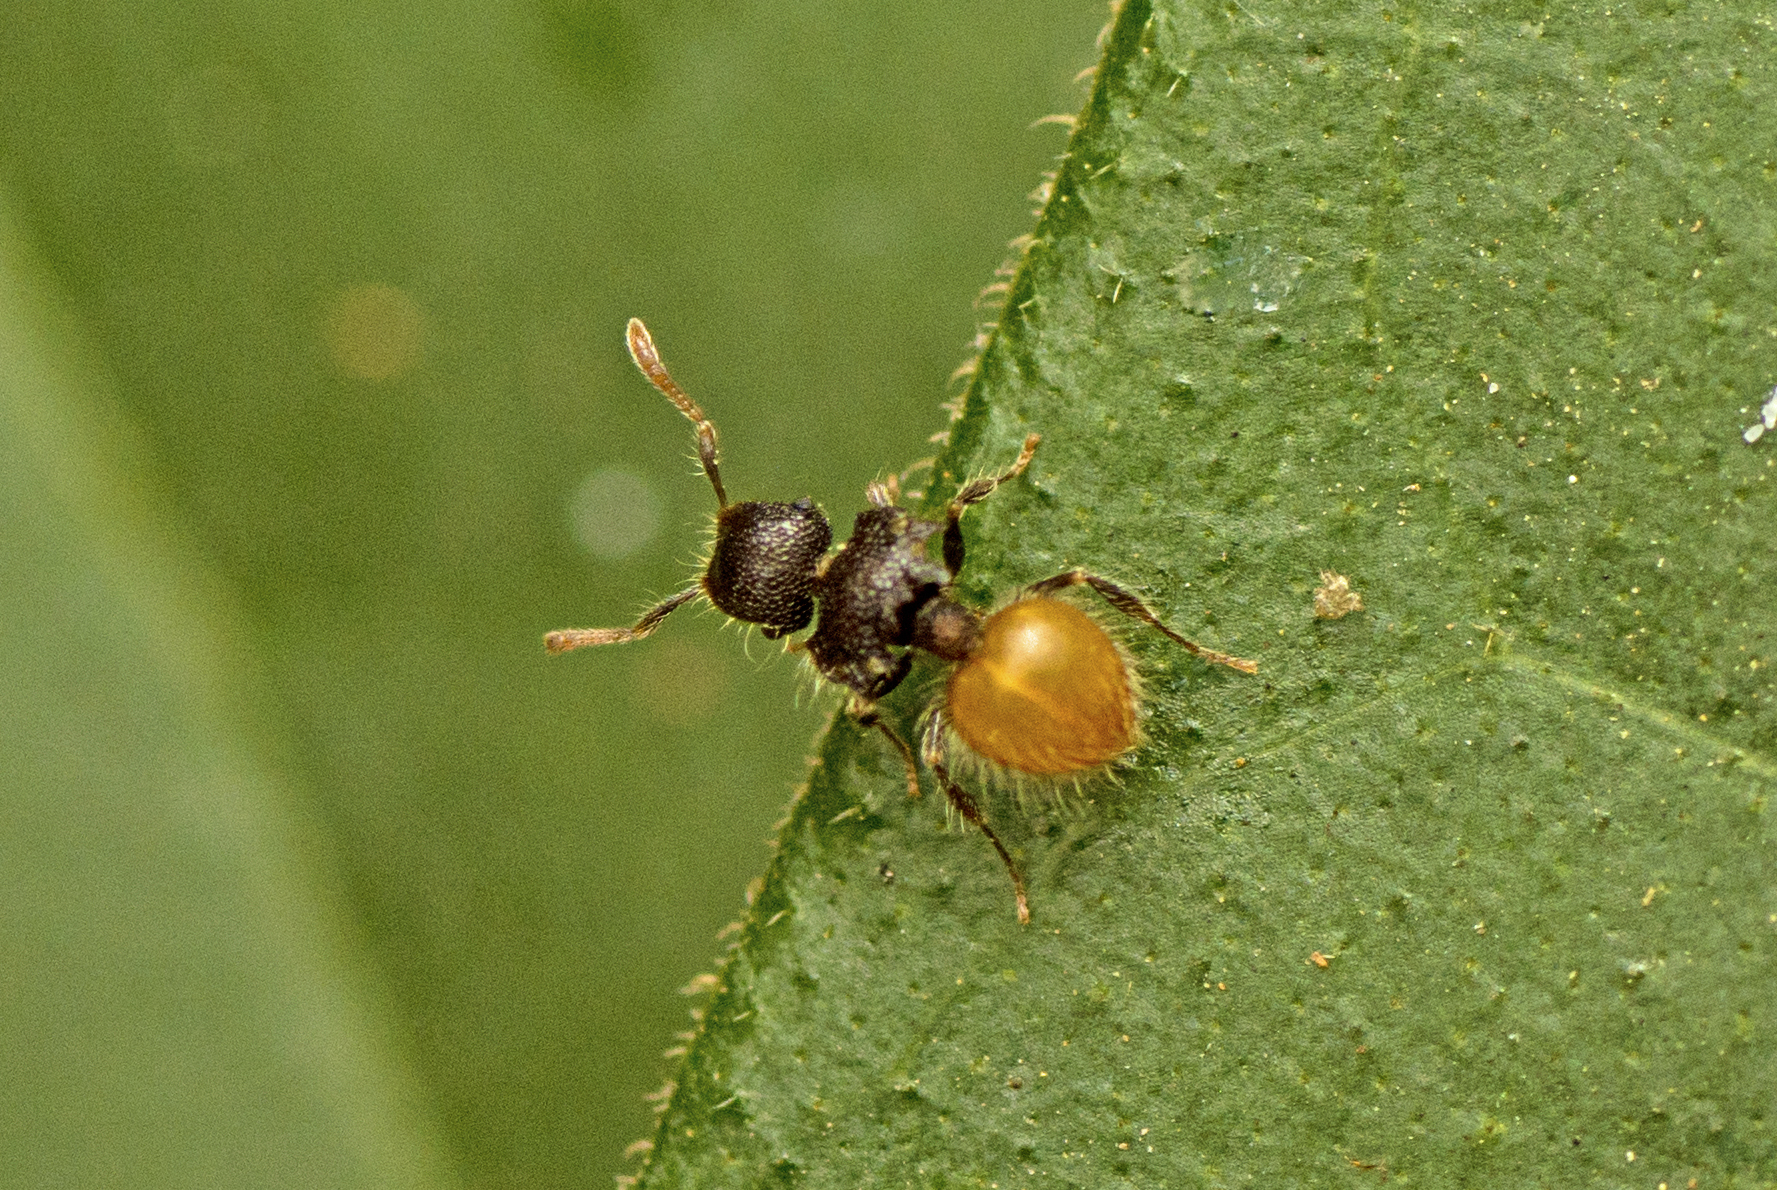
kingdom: Animalia
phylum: Arthropoda
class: Insecta
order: Hymenoptera
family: Formicidae
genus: Meranoplus
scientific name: Meranoplus hirsutus
